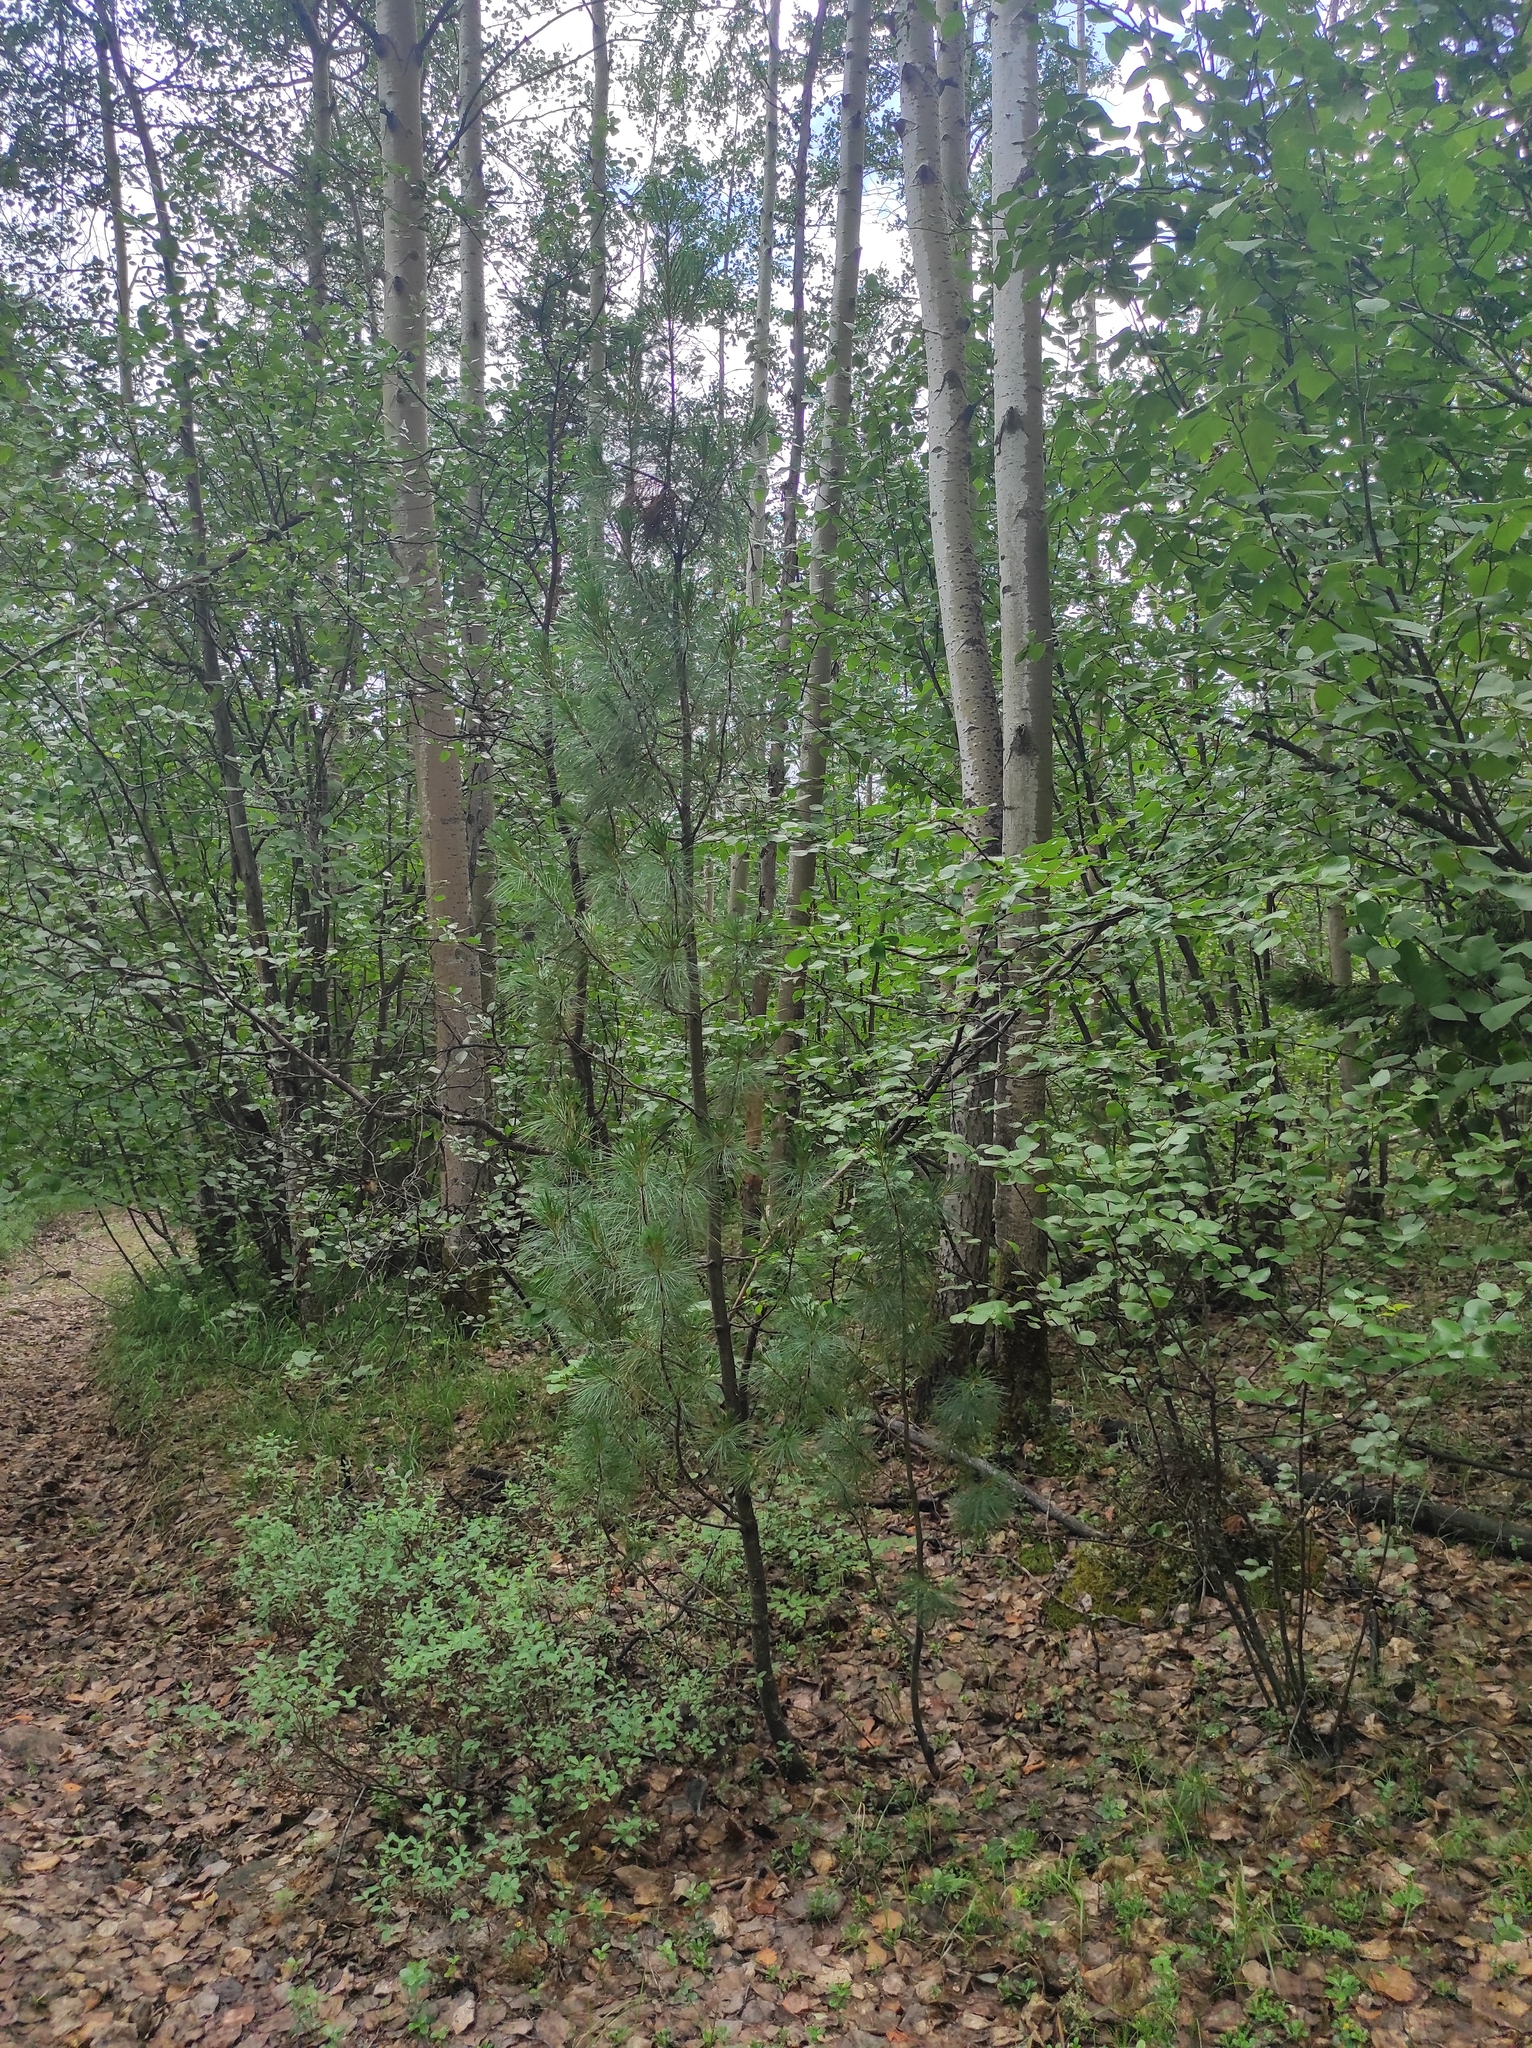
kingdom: Plantae
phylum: Tracheophyta
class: Pinopsida
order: Pinales
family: Pinaceae
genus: Pinus
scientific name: Pinus sibirica
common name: Siberian pine
